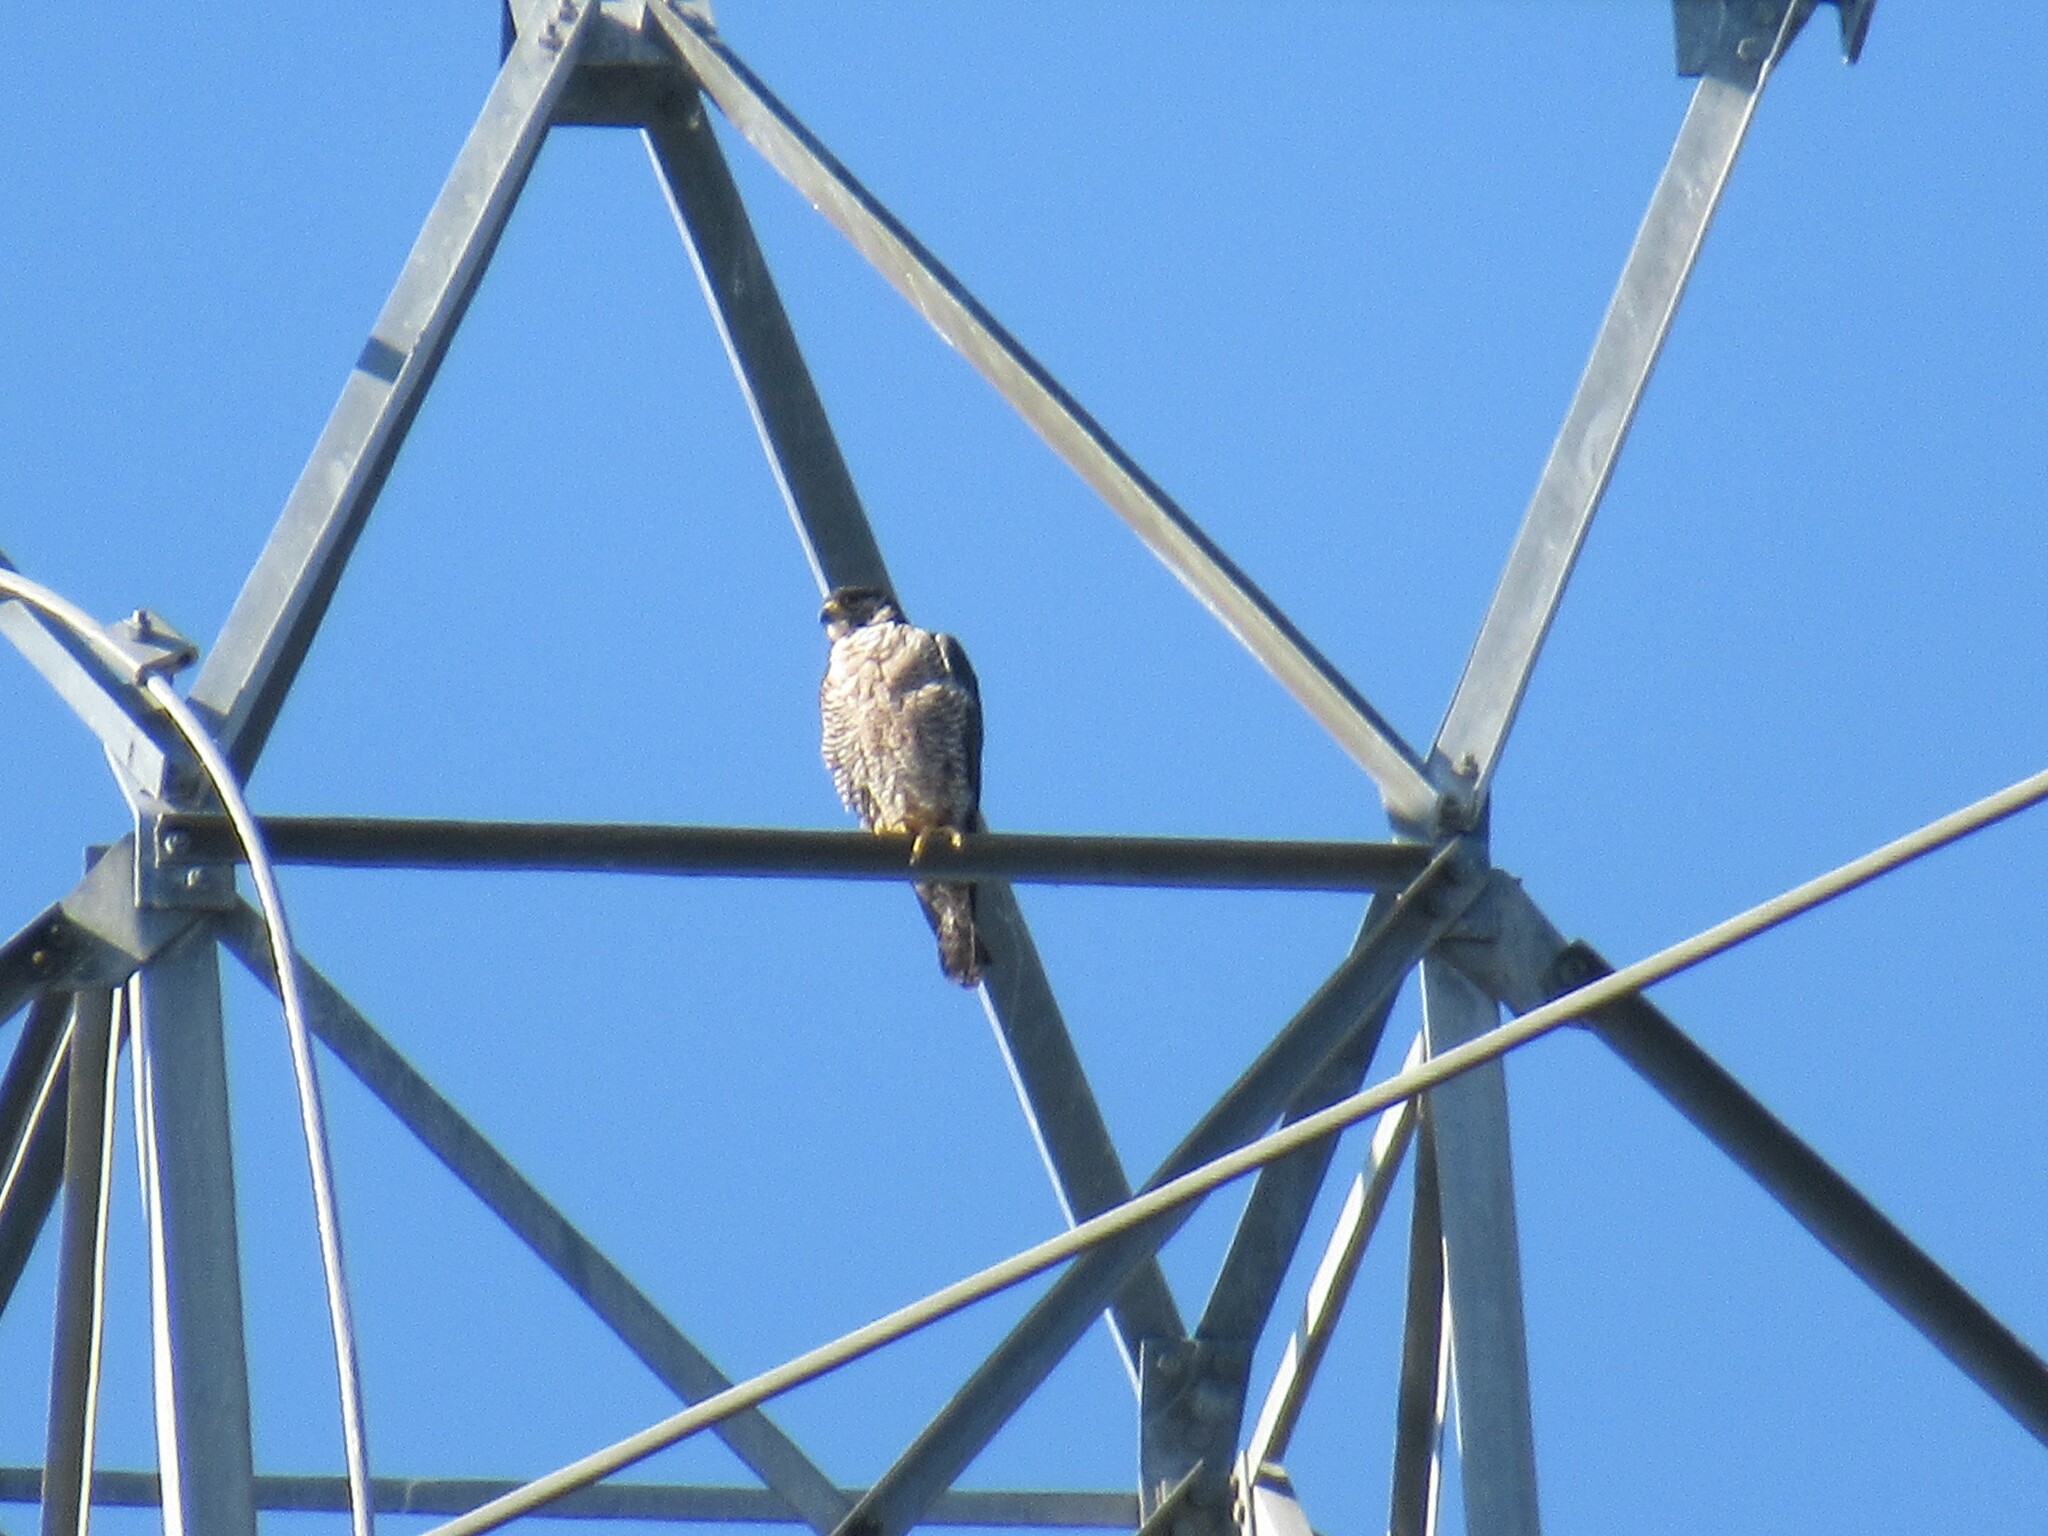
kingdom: Animalia
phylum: Chordata
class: Aves
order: Falconiformes
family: Falconidae
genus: Falco
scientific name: Falco peregrinus
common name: Peregrine falcon
